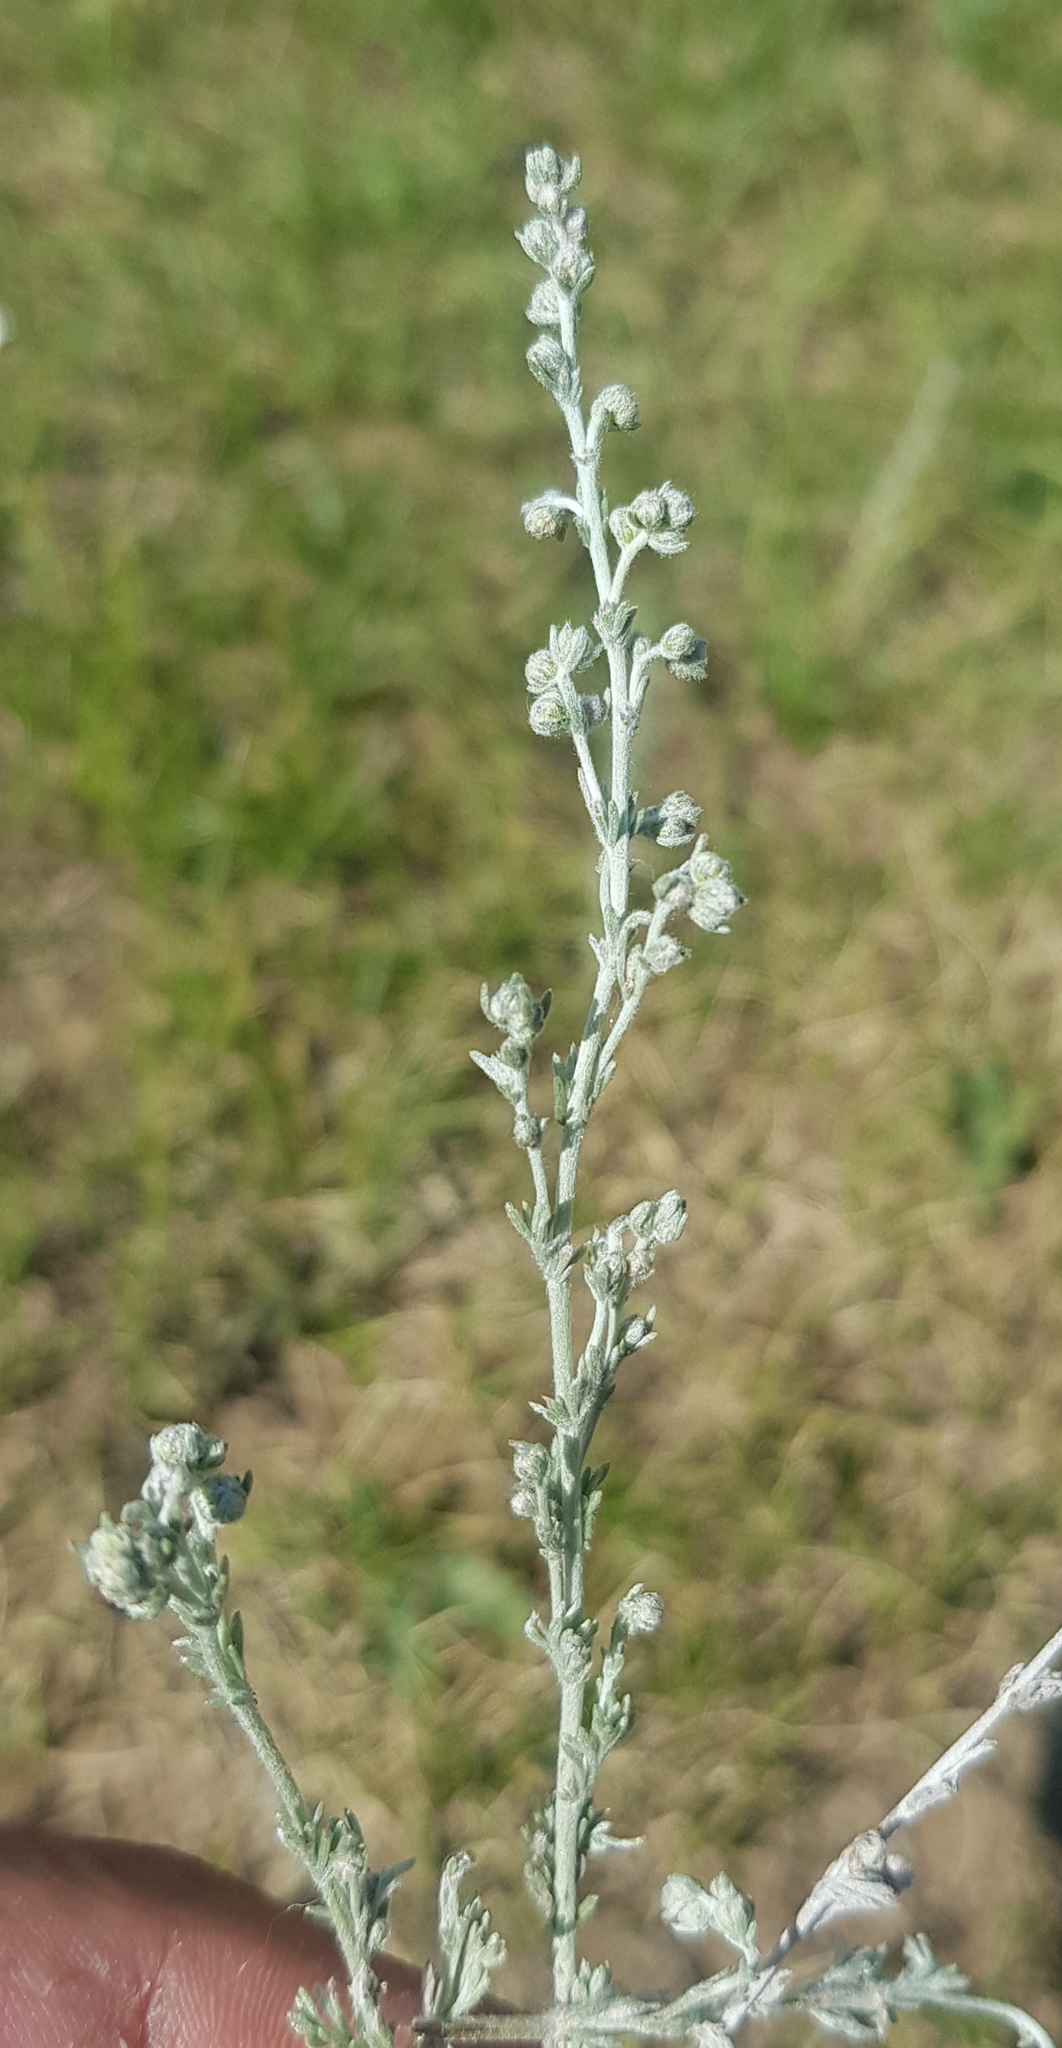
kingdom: Plantae
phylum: Tracheophyta
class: Magnoliopsida
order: Asterales
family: Asteraceae
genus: Artemisia
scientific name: Artemisia frigida
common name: Prairie sagewort
